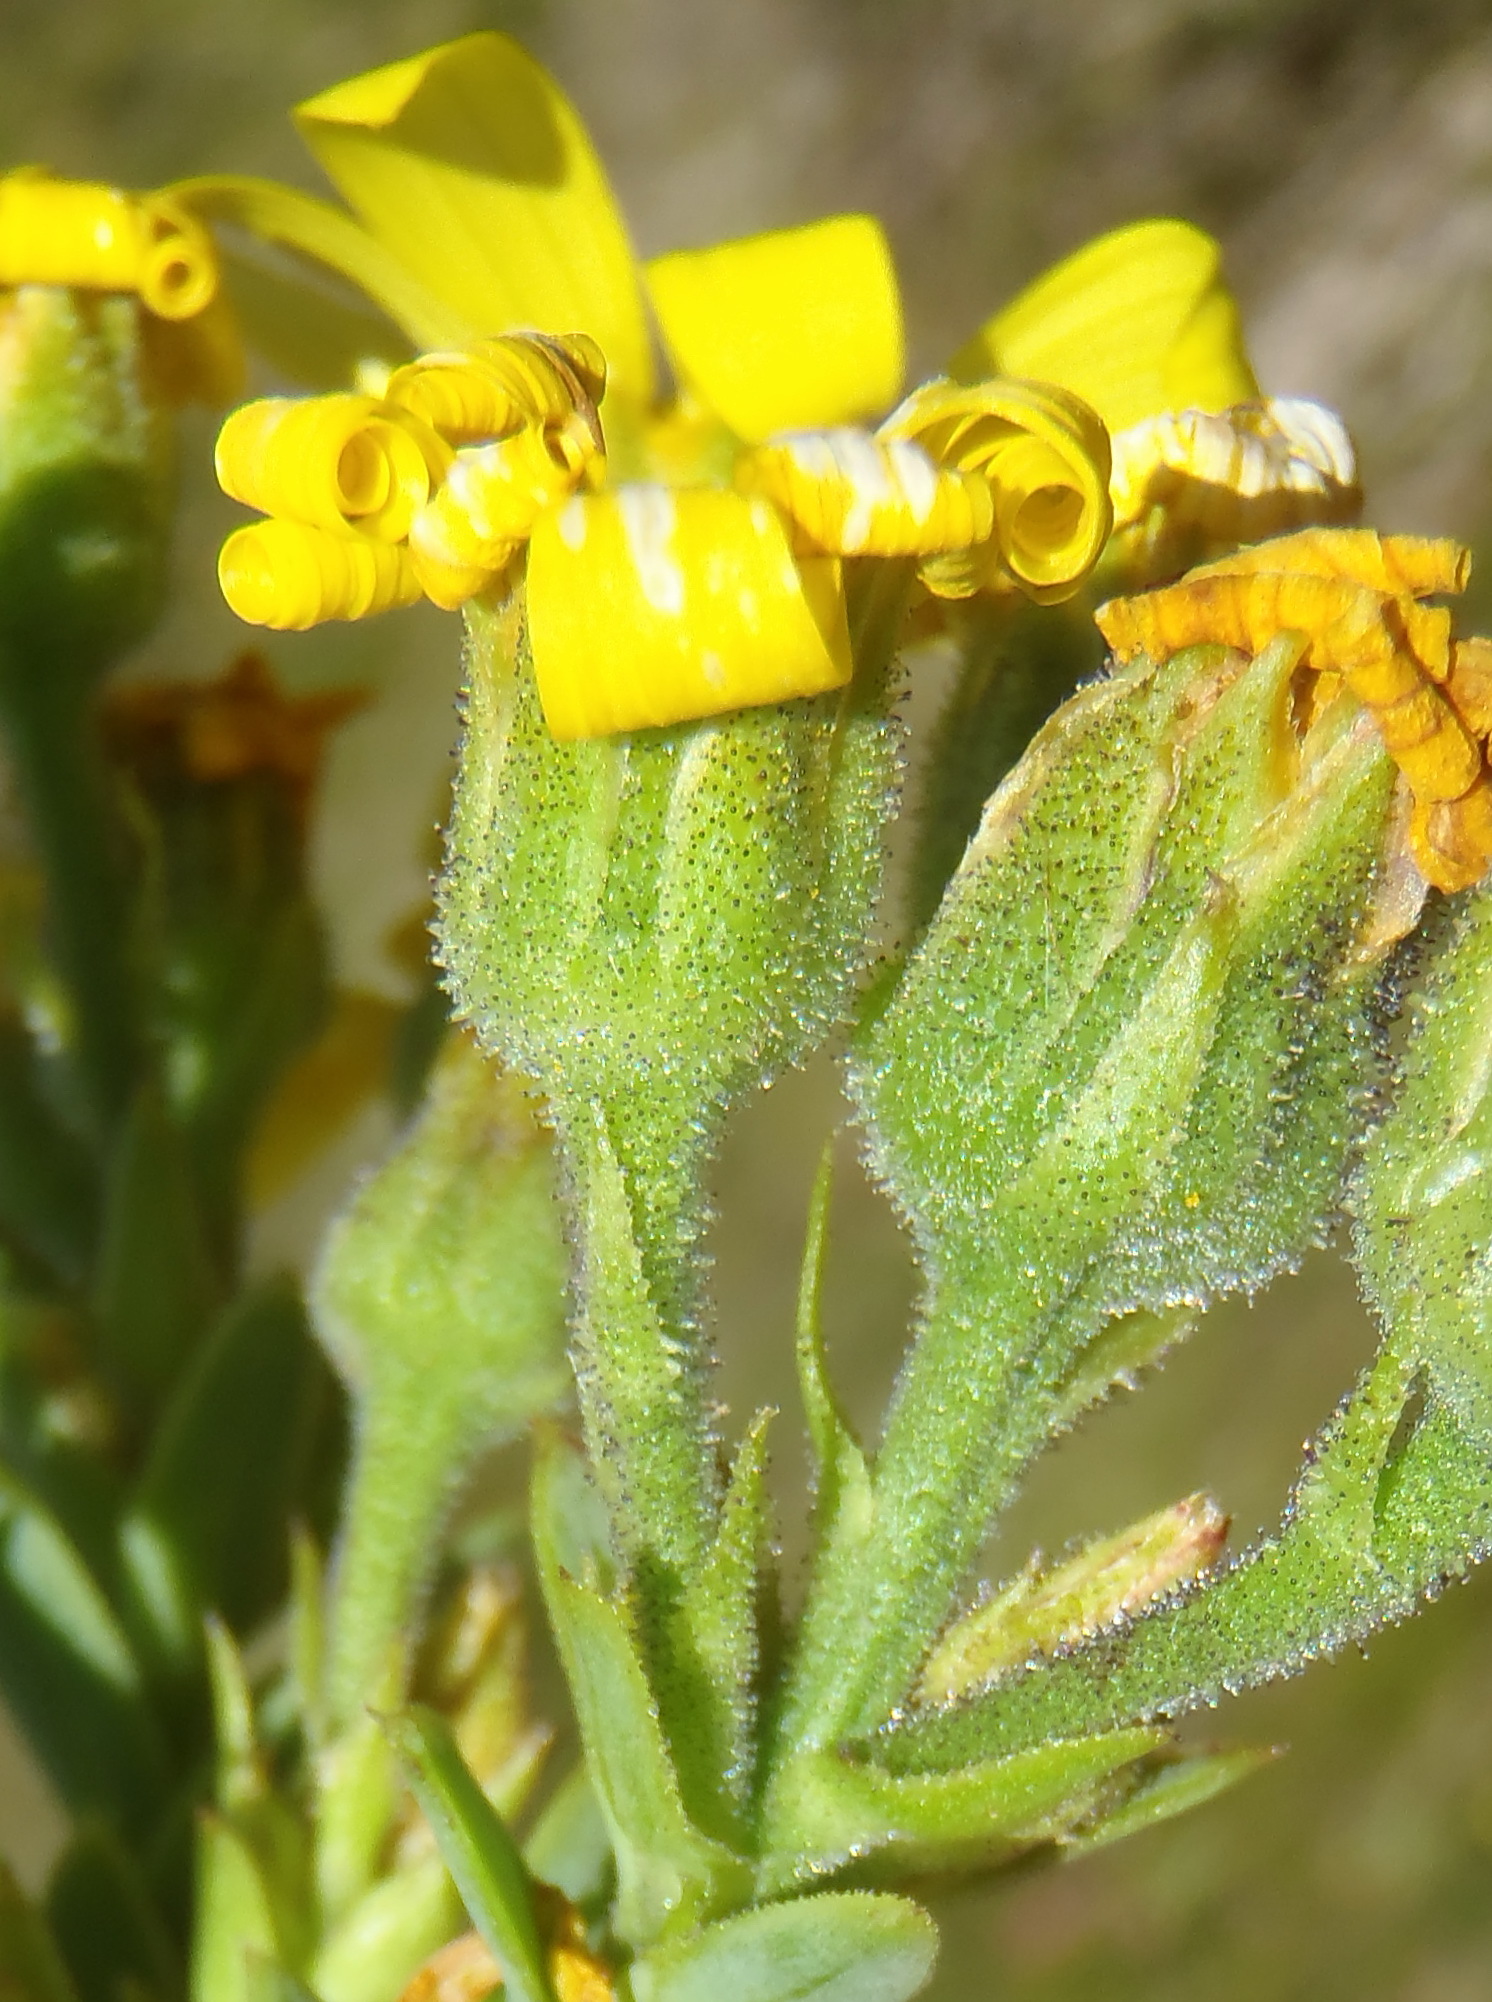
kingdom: Plantae
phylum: Tracheophyta
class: Magnoliopsida
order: Asterales
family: Asteraceae
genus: Osteospermum
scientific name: Osteospermum corymbosum
